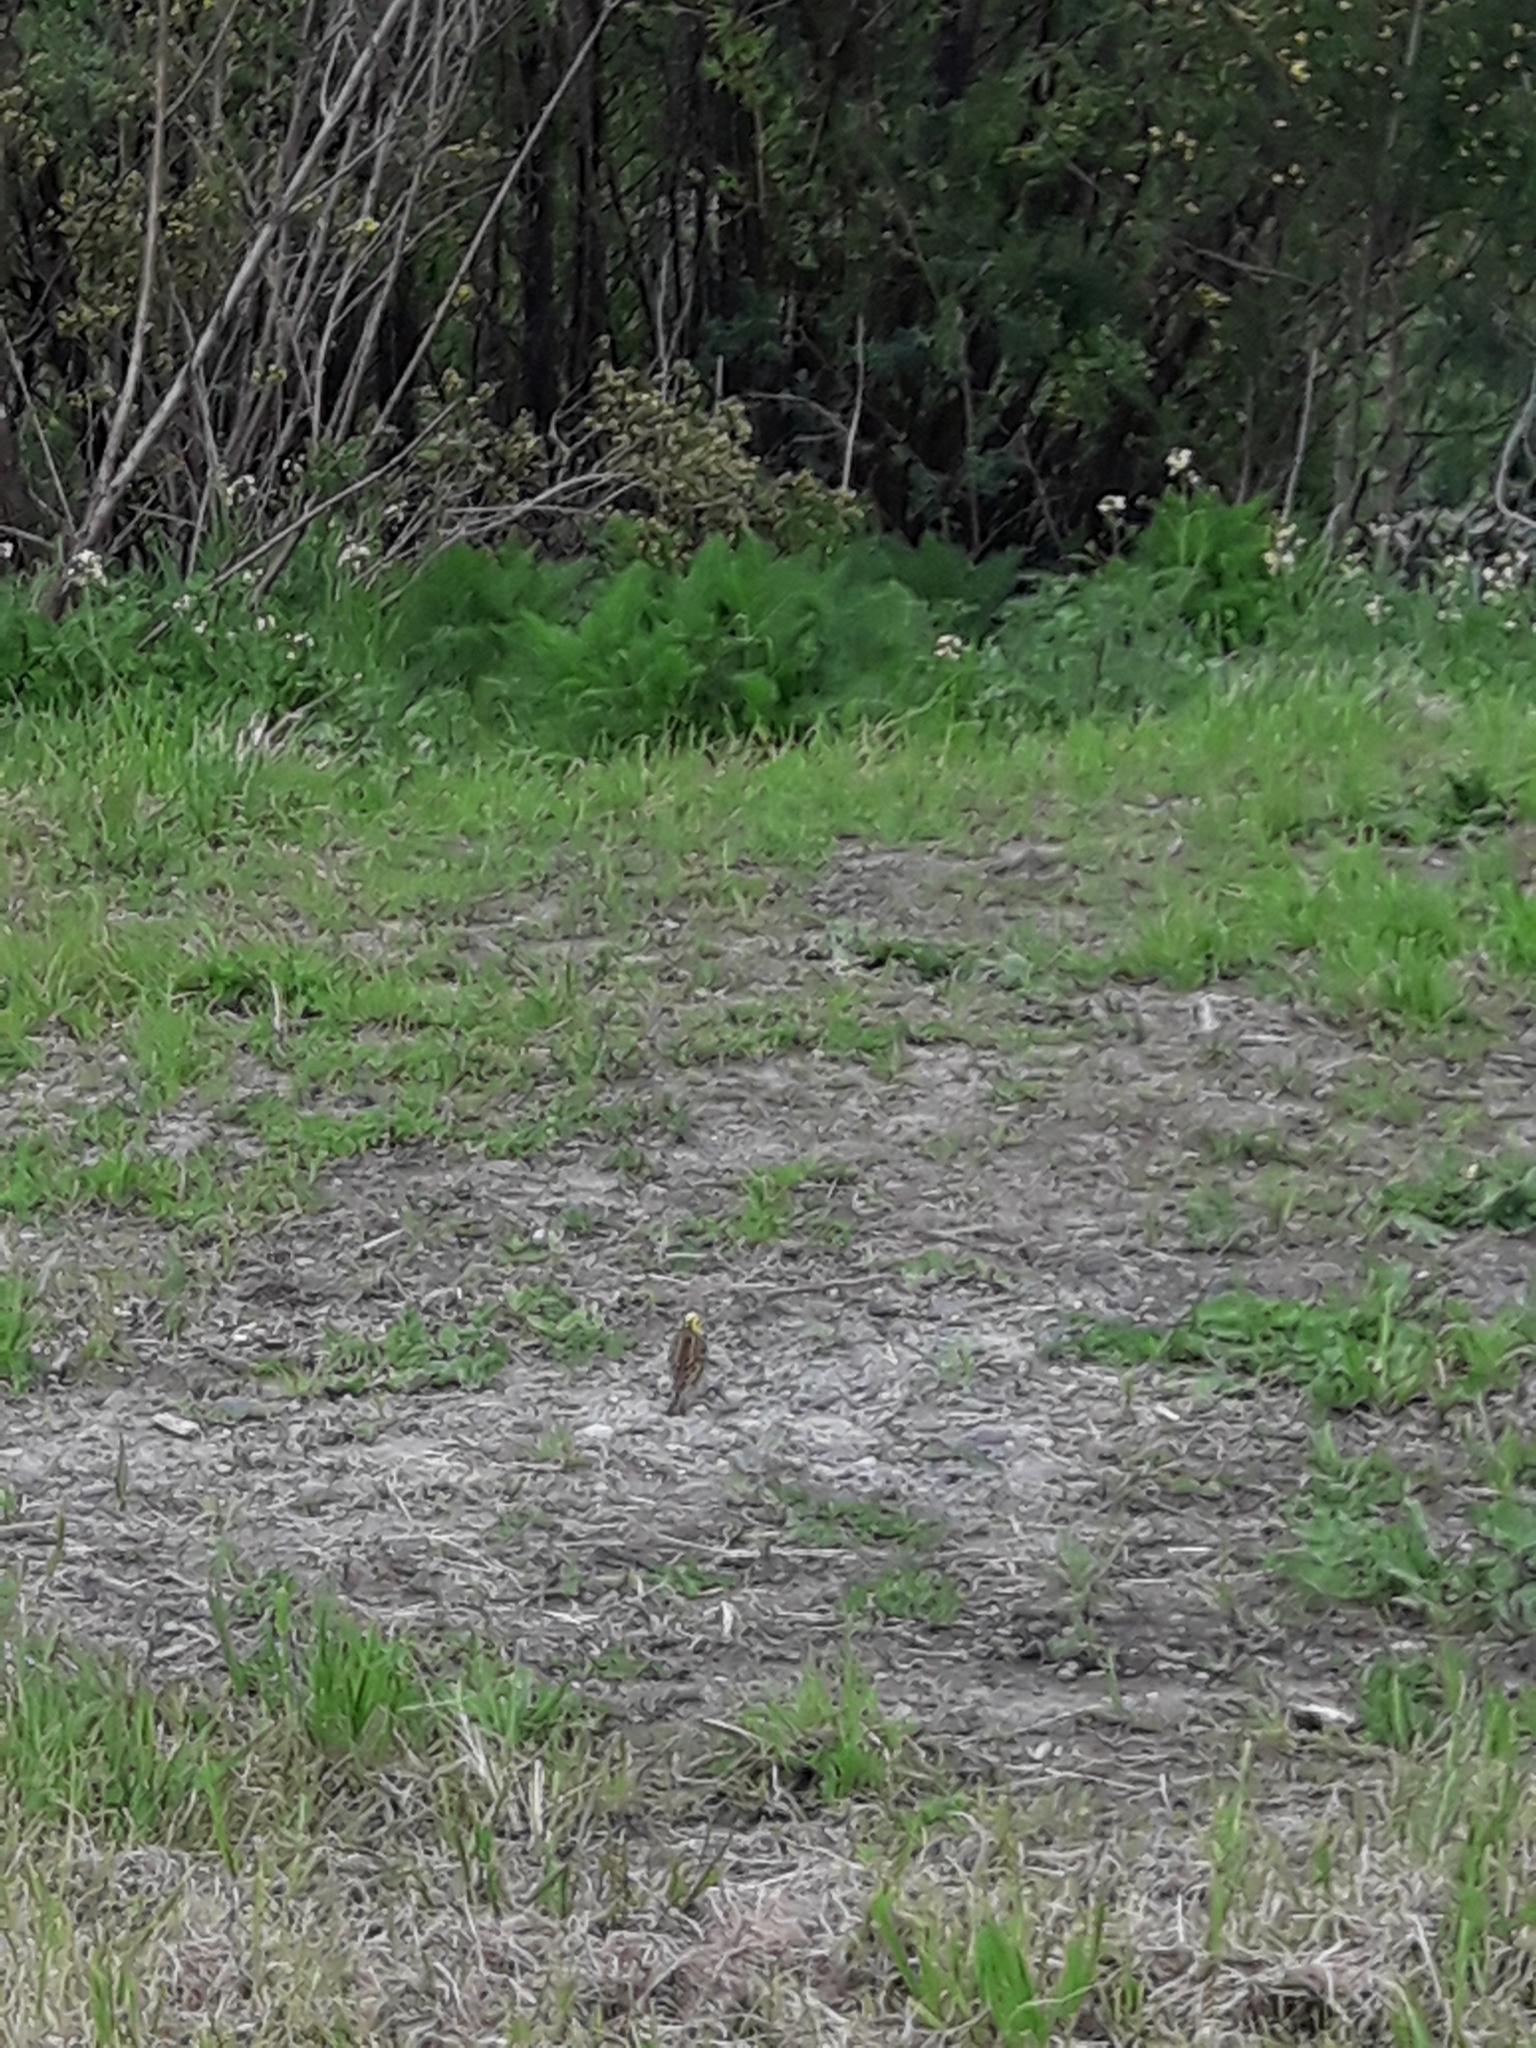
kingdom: Animalia
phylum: Chordata
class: Aves
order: Passeriformes
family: Emberizidae
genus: Emberiza
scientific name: Emberiza citrinella
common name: Yellowhammer
